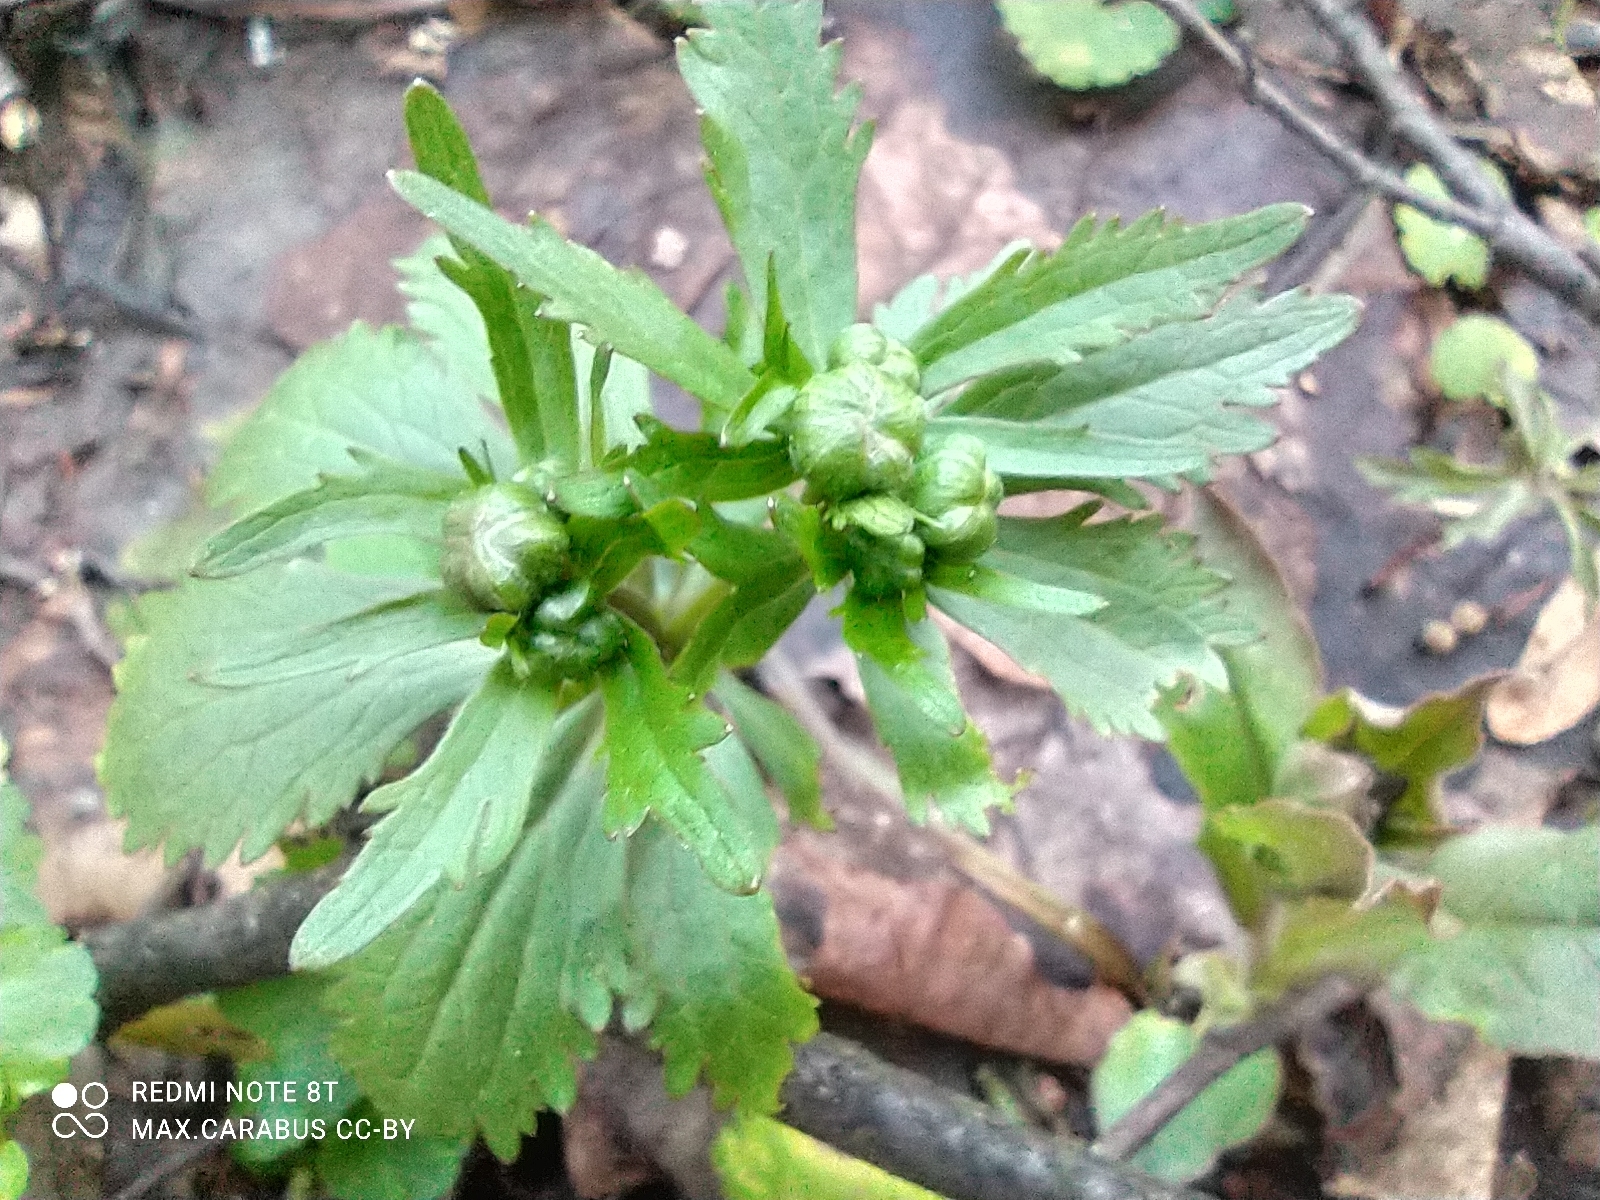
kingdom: Plantae
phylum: Tracheophyta
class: Magnoliopsida
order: Ranunculales
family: Ranunculaceae
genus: Ranunculus
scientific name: Ranunculus cassubicus
